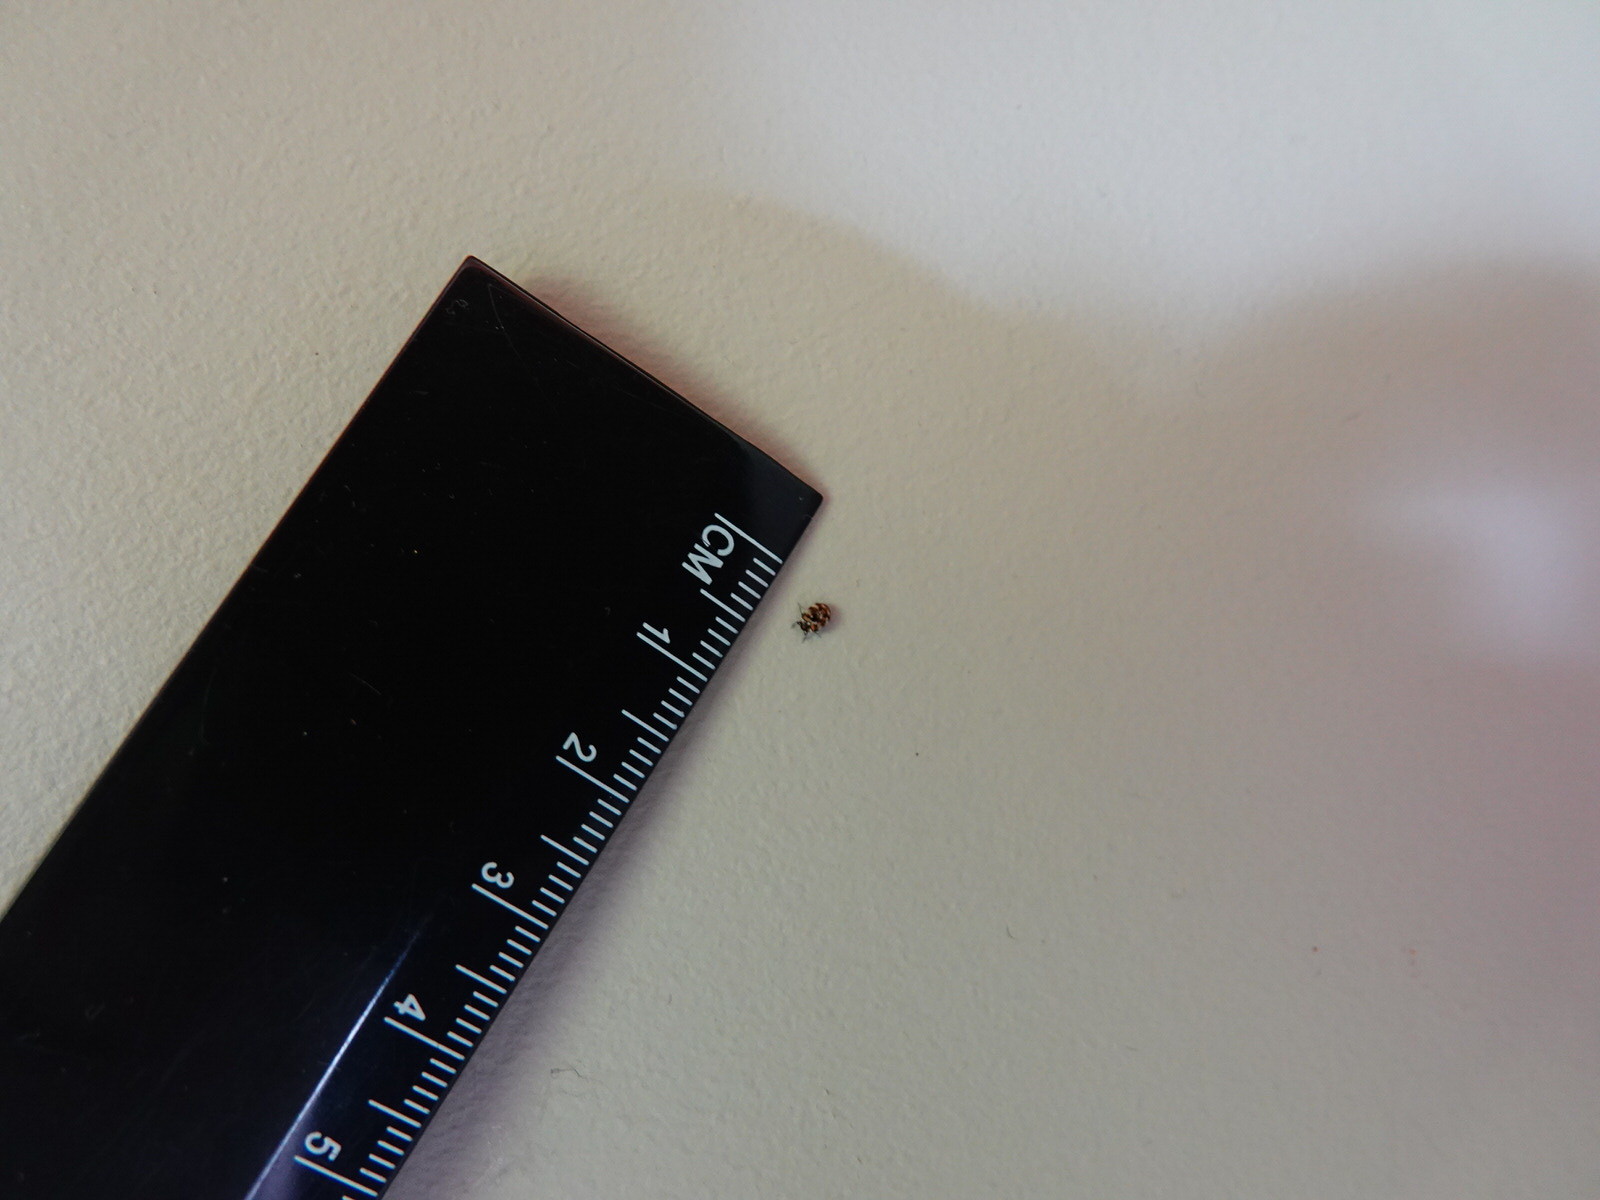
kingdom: Animalia
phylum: Arthropoda
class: Insecta
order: Coleoptera
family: Dermestidae
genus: Anthrenus
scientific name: Anthrenus verbasci
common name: Varied carpet beetle
